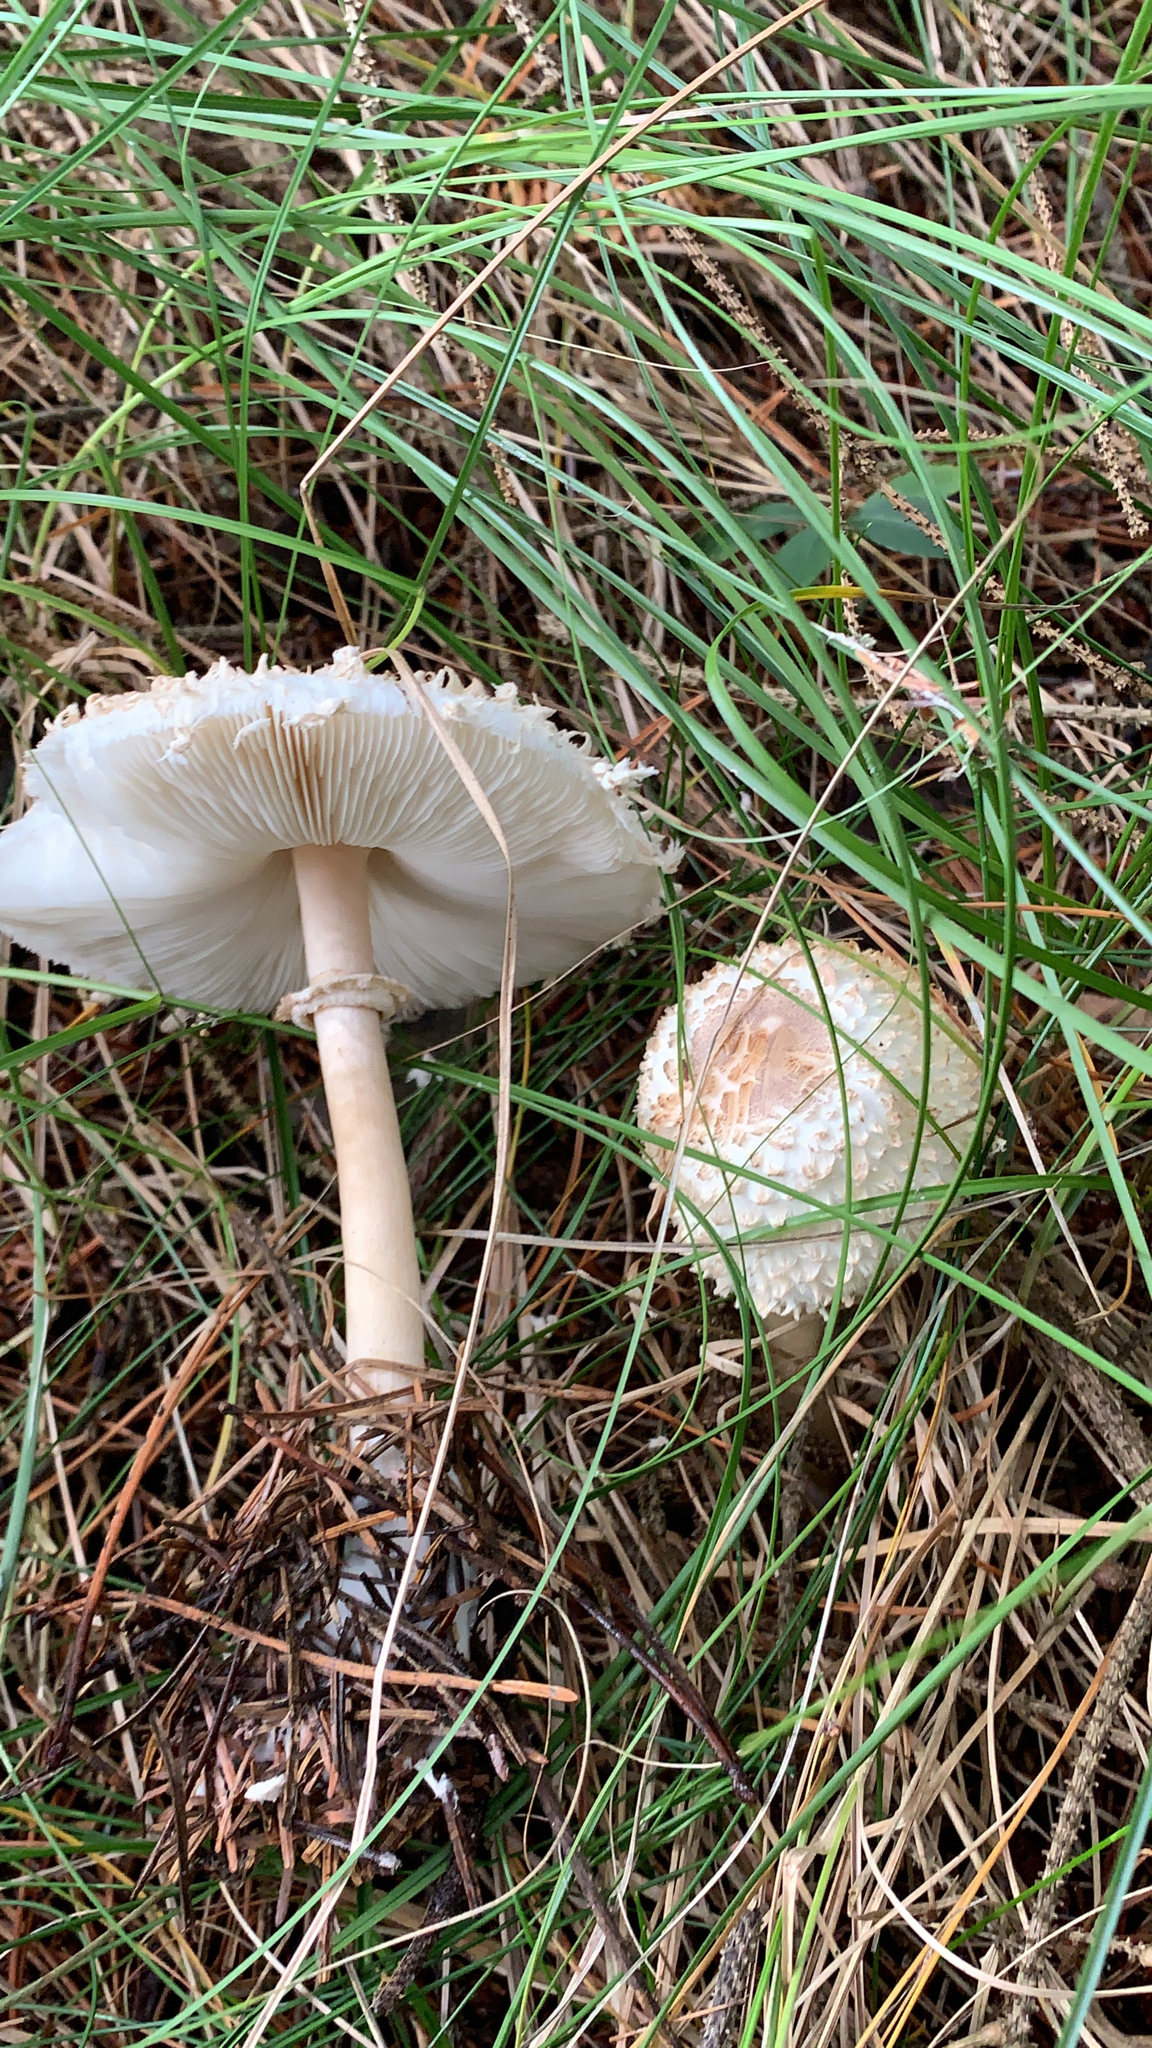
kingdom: Fungi
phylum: Basidiomycota
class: Agaricomycetes
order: Agaricales
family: Agaricaceae
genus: Leucoagaricus
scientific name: Leucoagaricus nympharum
